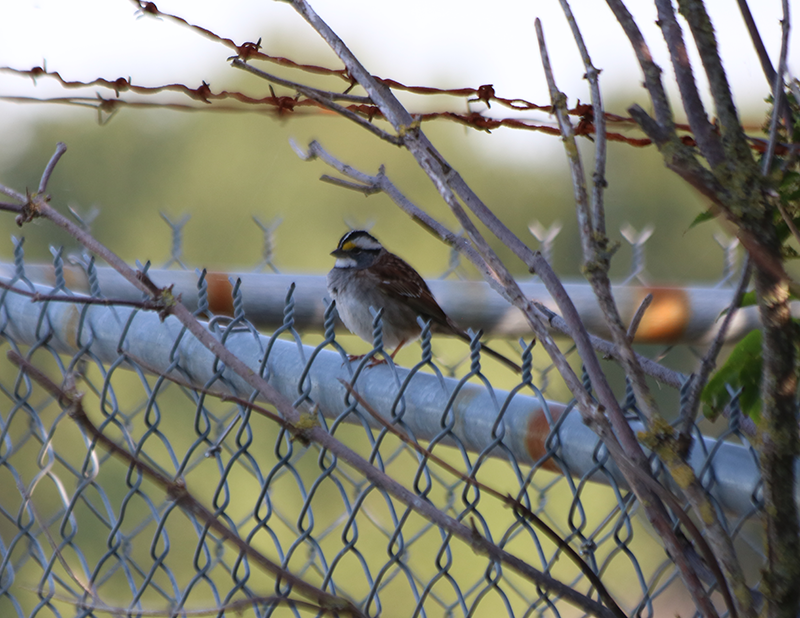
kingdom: Animalia
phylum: Chordata
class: Aves
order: Passeriformes
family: Passerellidae
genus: Zonotrichia
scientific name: Zonotrichia albicollis
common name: White-throated sparrow
